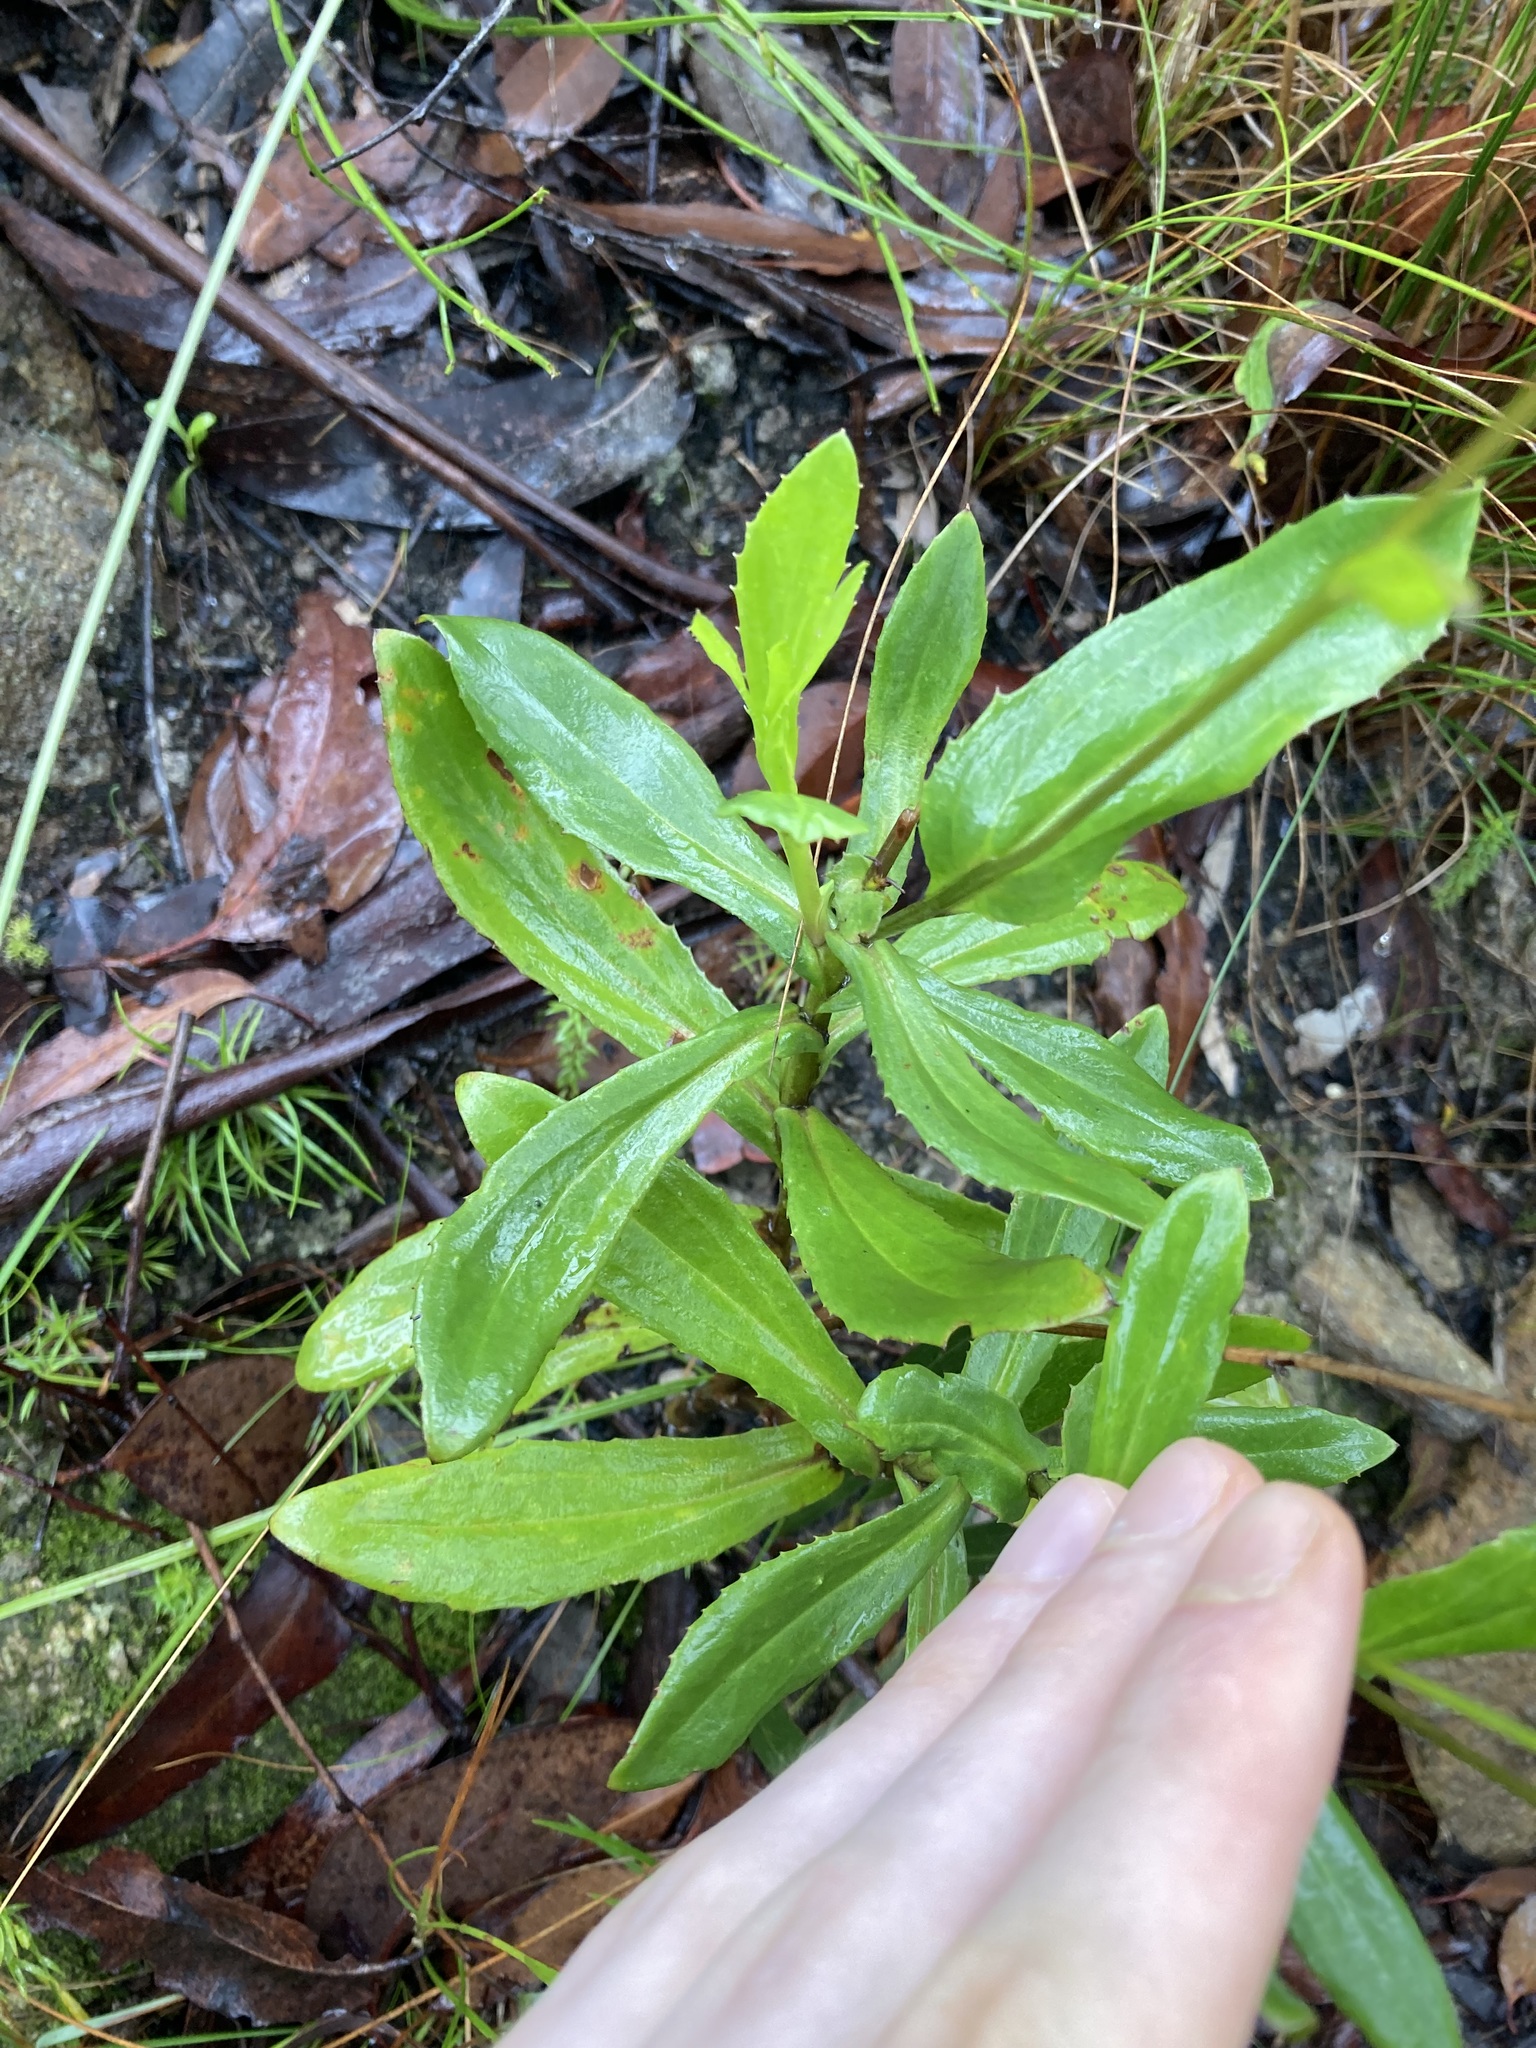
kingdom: Plantae
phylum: Tracheophyta
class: Magnoliopsida
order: Asterales
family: Goodeniaceae
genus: Goodenia
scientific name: Goodenia decurrens
